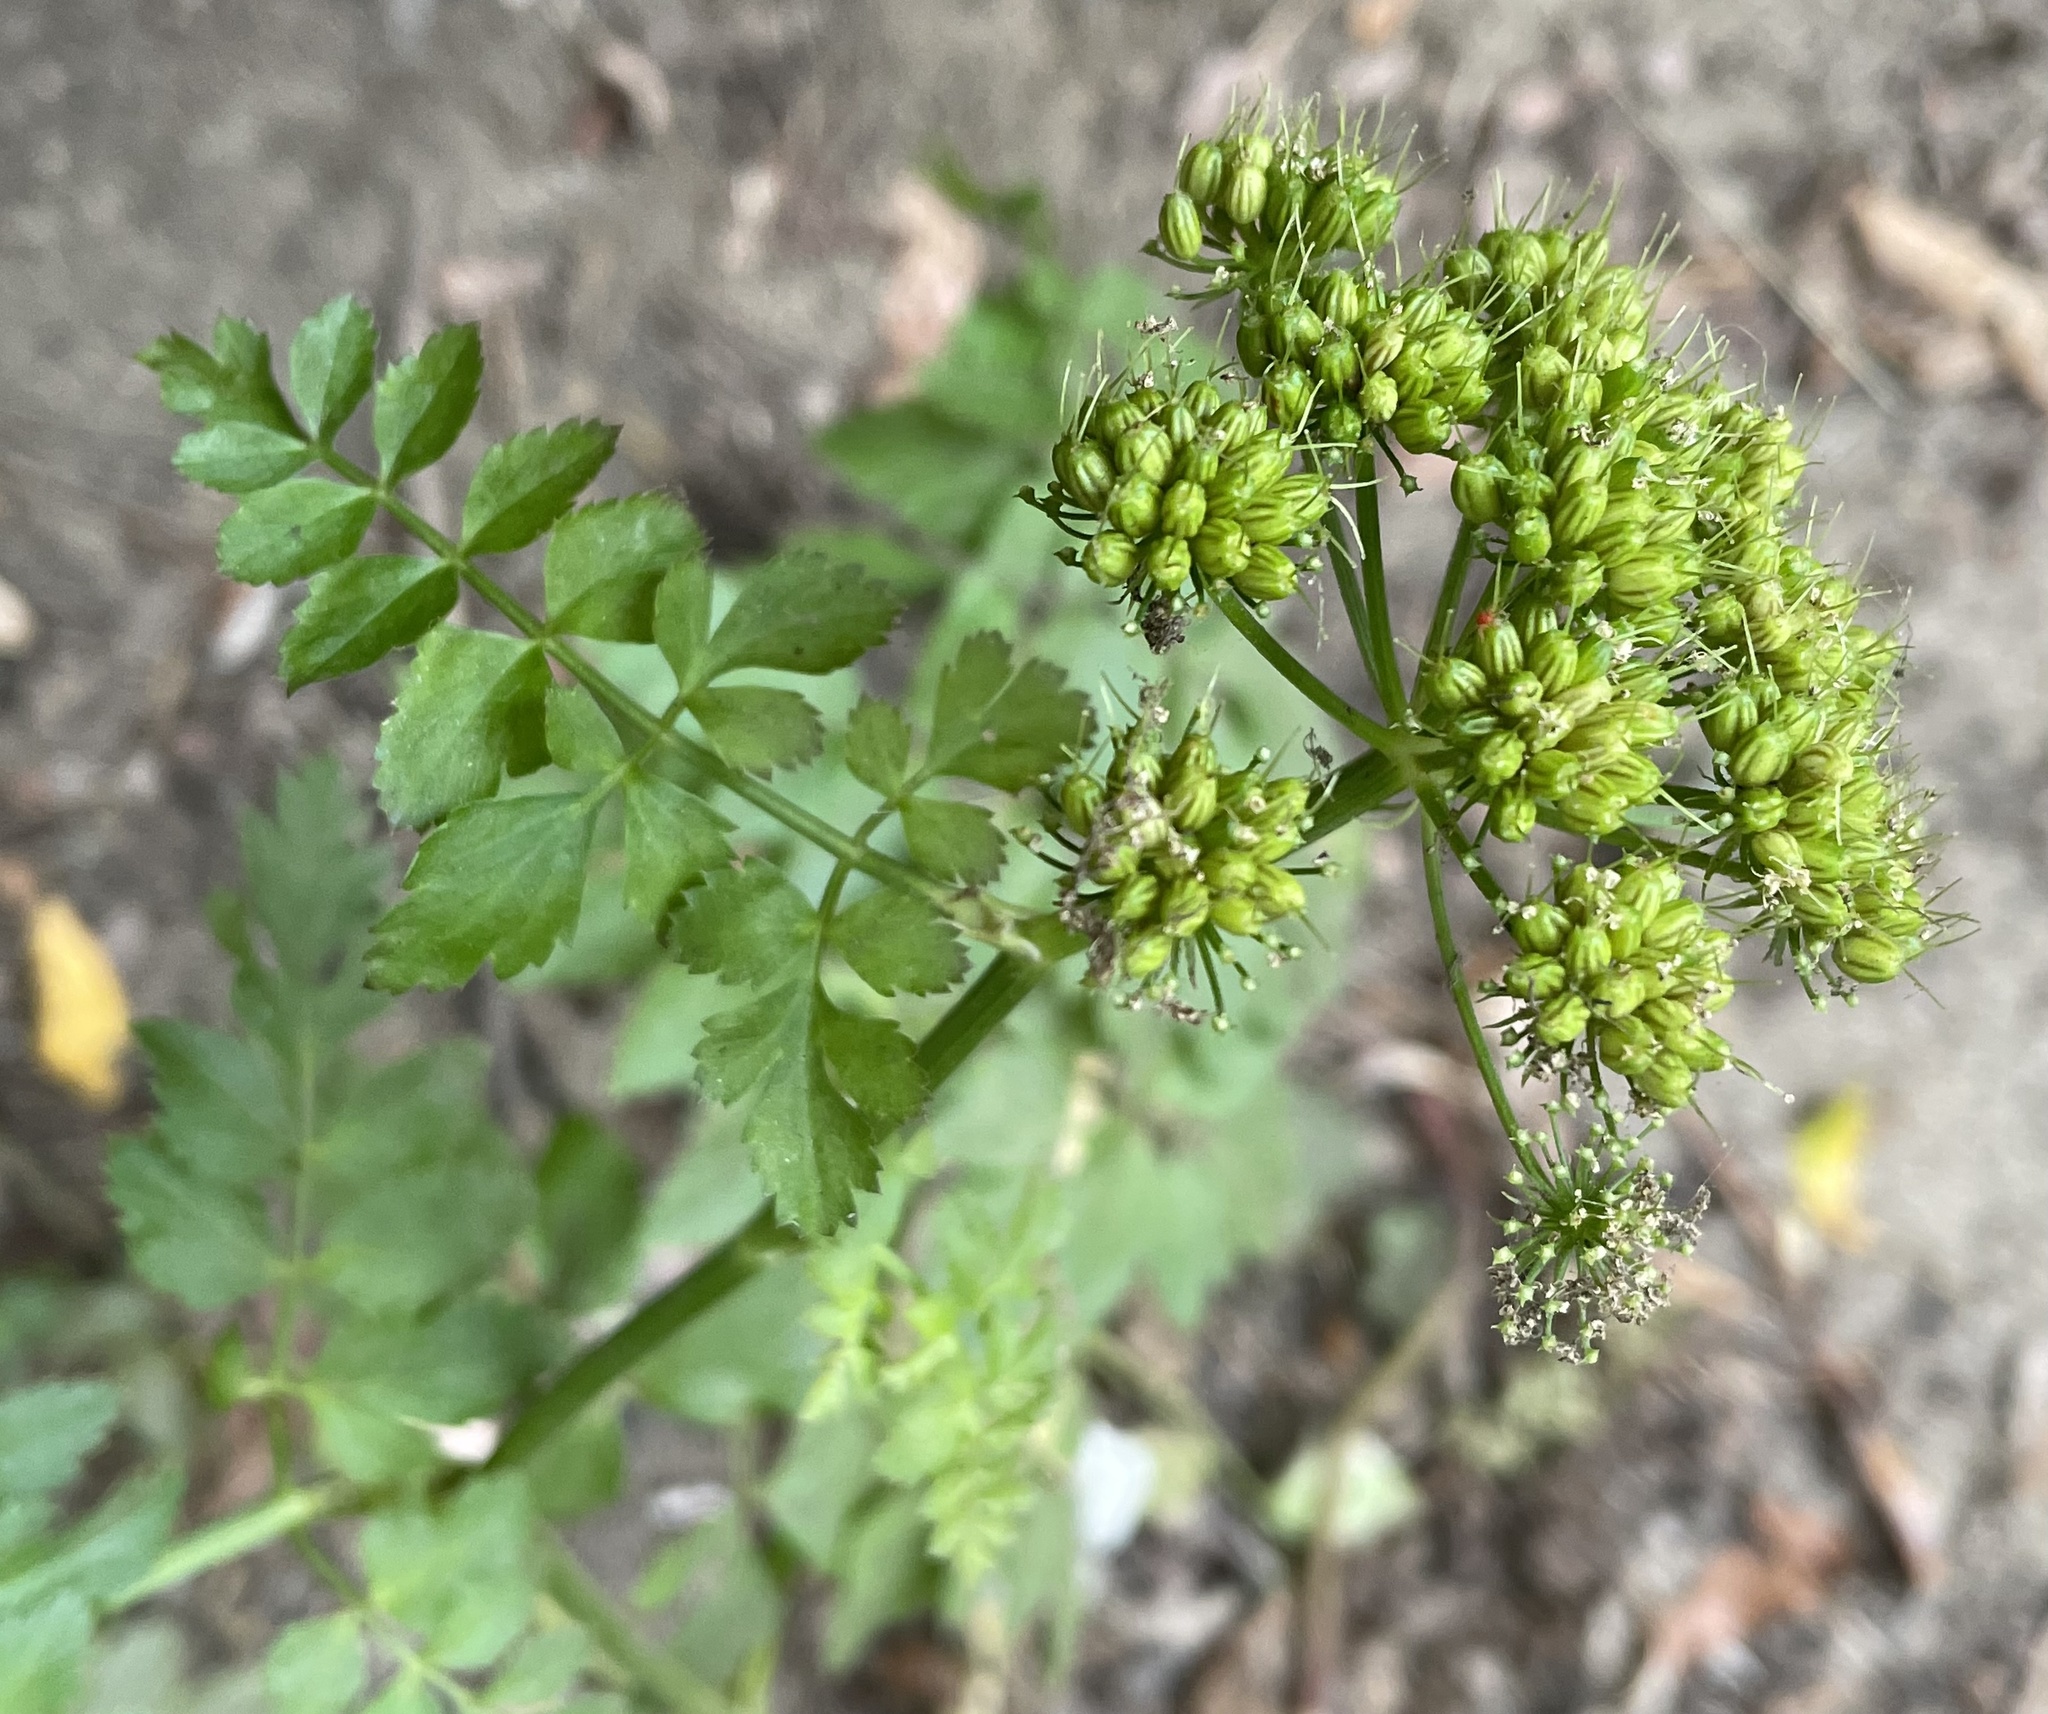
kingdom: Plantae
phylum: Tracheophyta
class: Magnoliopsida
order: Apiales
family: Apiaceae
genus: Oenanthe
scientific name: Oenanthe sarmentosa
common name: American water-parsley
